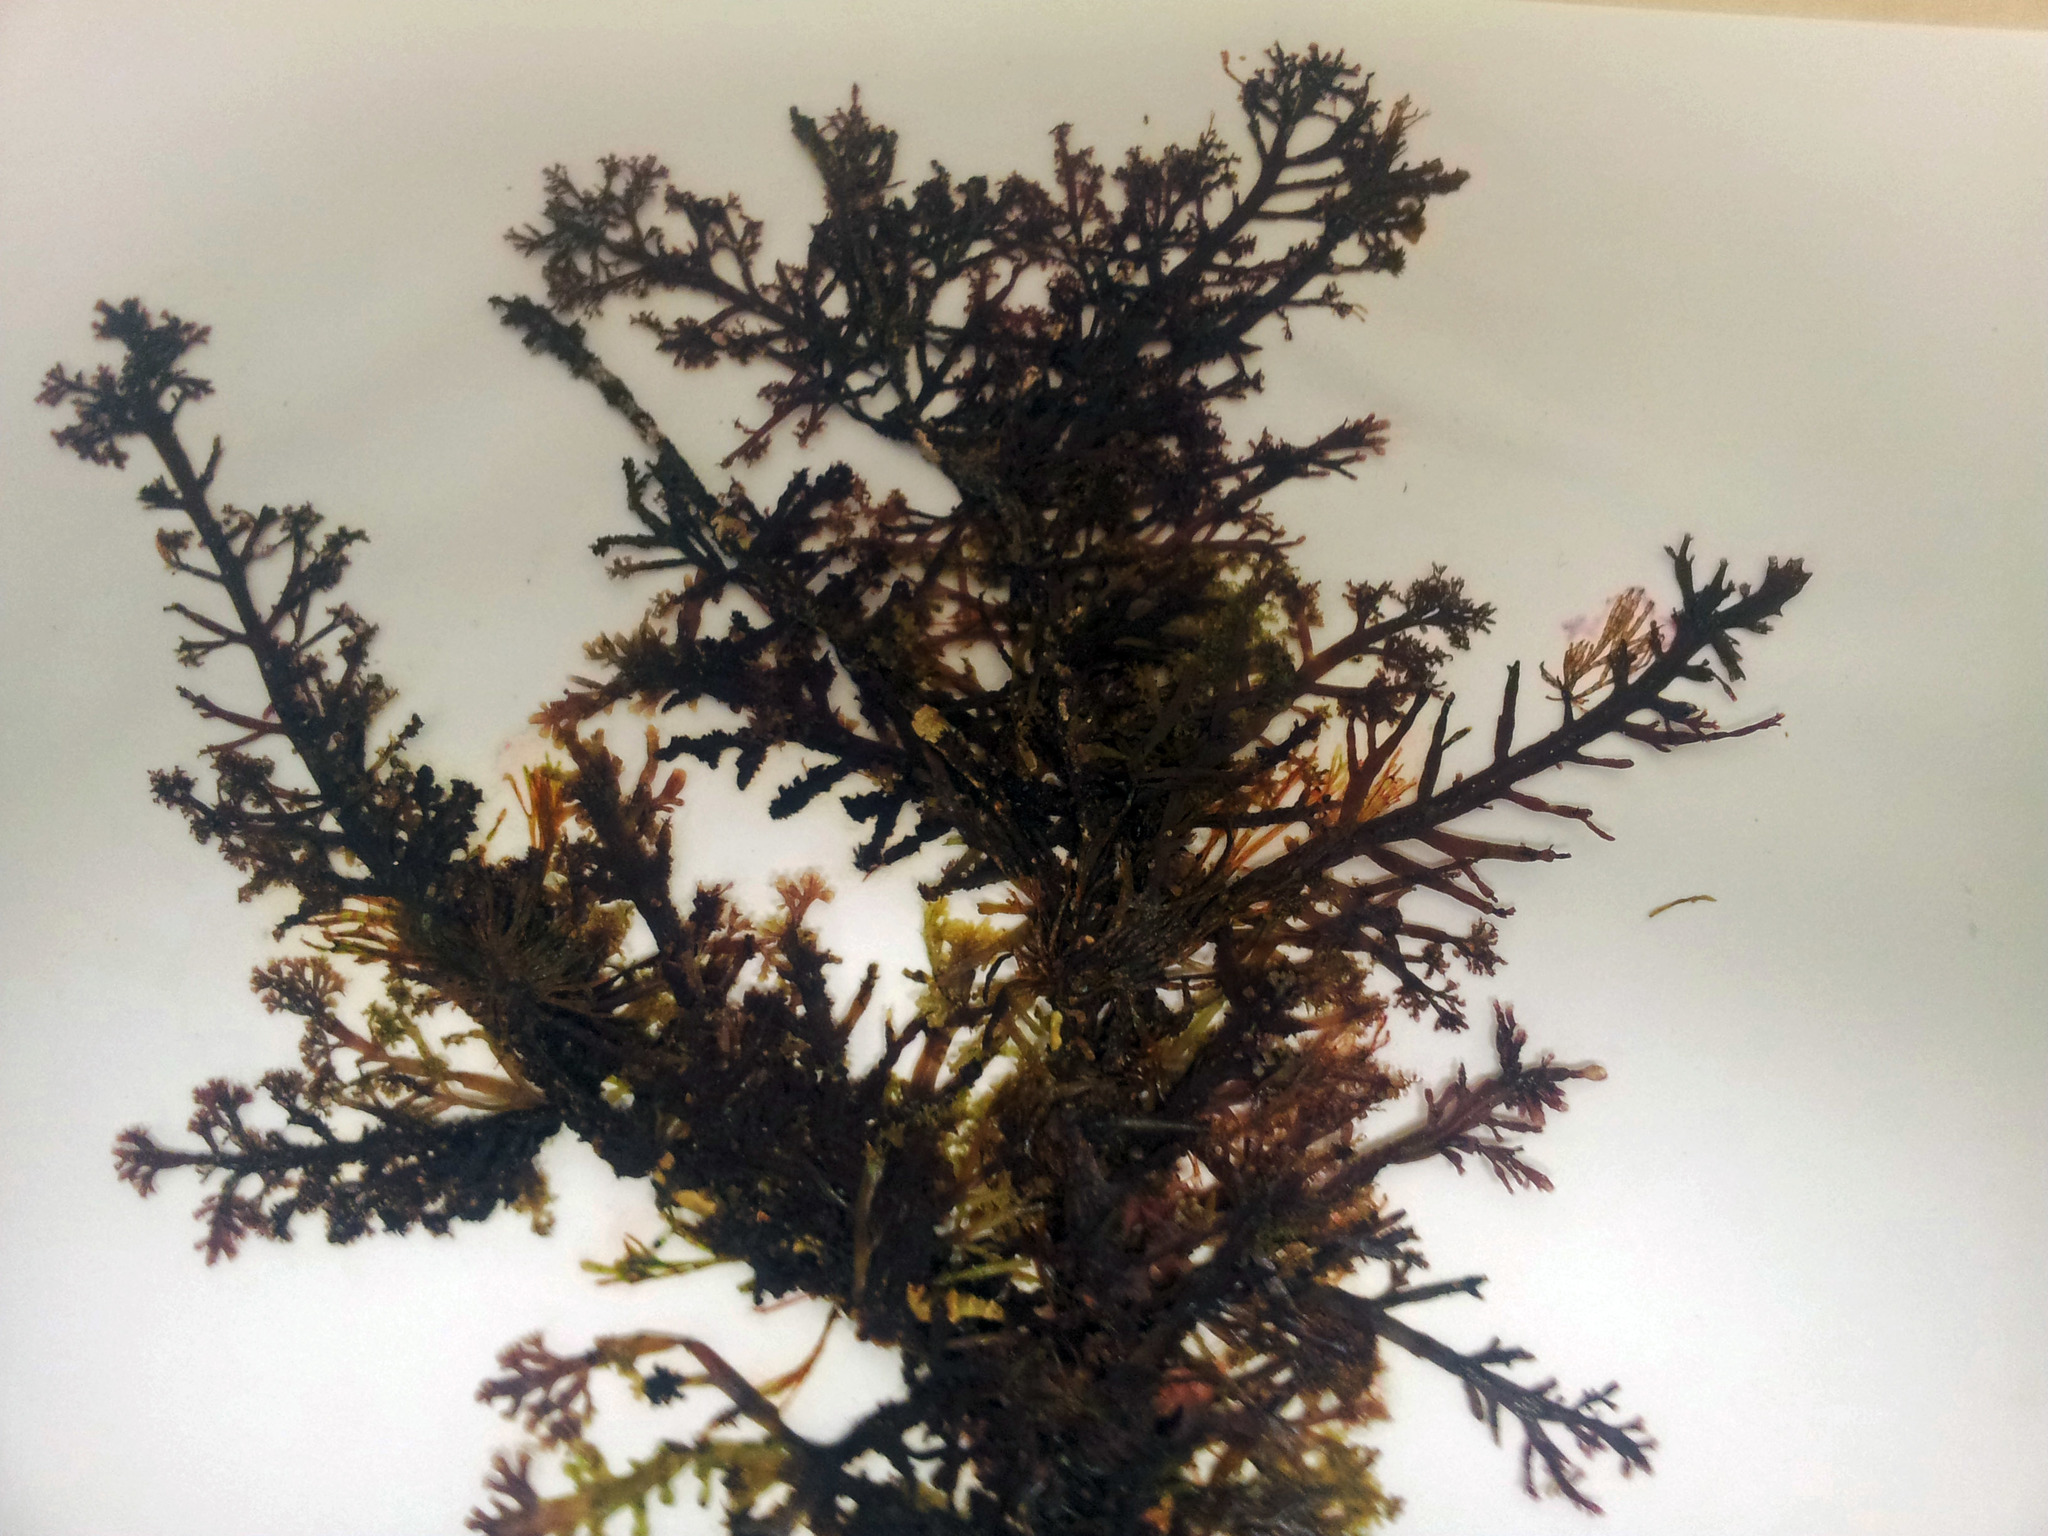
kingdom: Plantae
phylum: Rhodophyta
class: Florideophyceae
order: Gelidiales
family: Pterocladiaceae
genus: Pterocladia
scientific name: Pterocladia lucida
